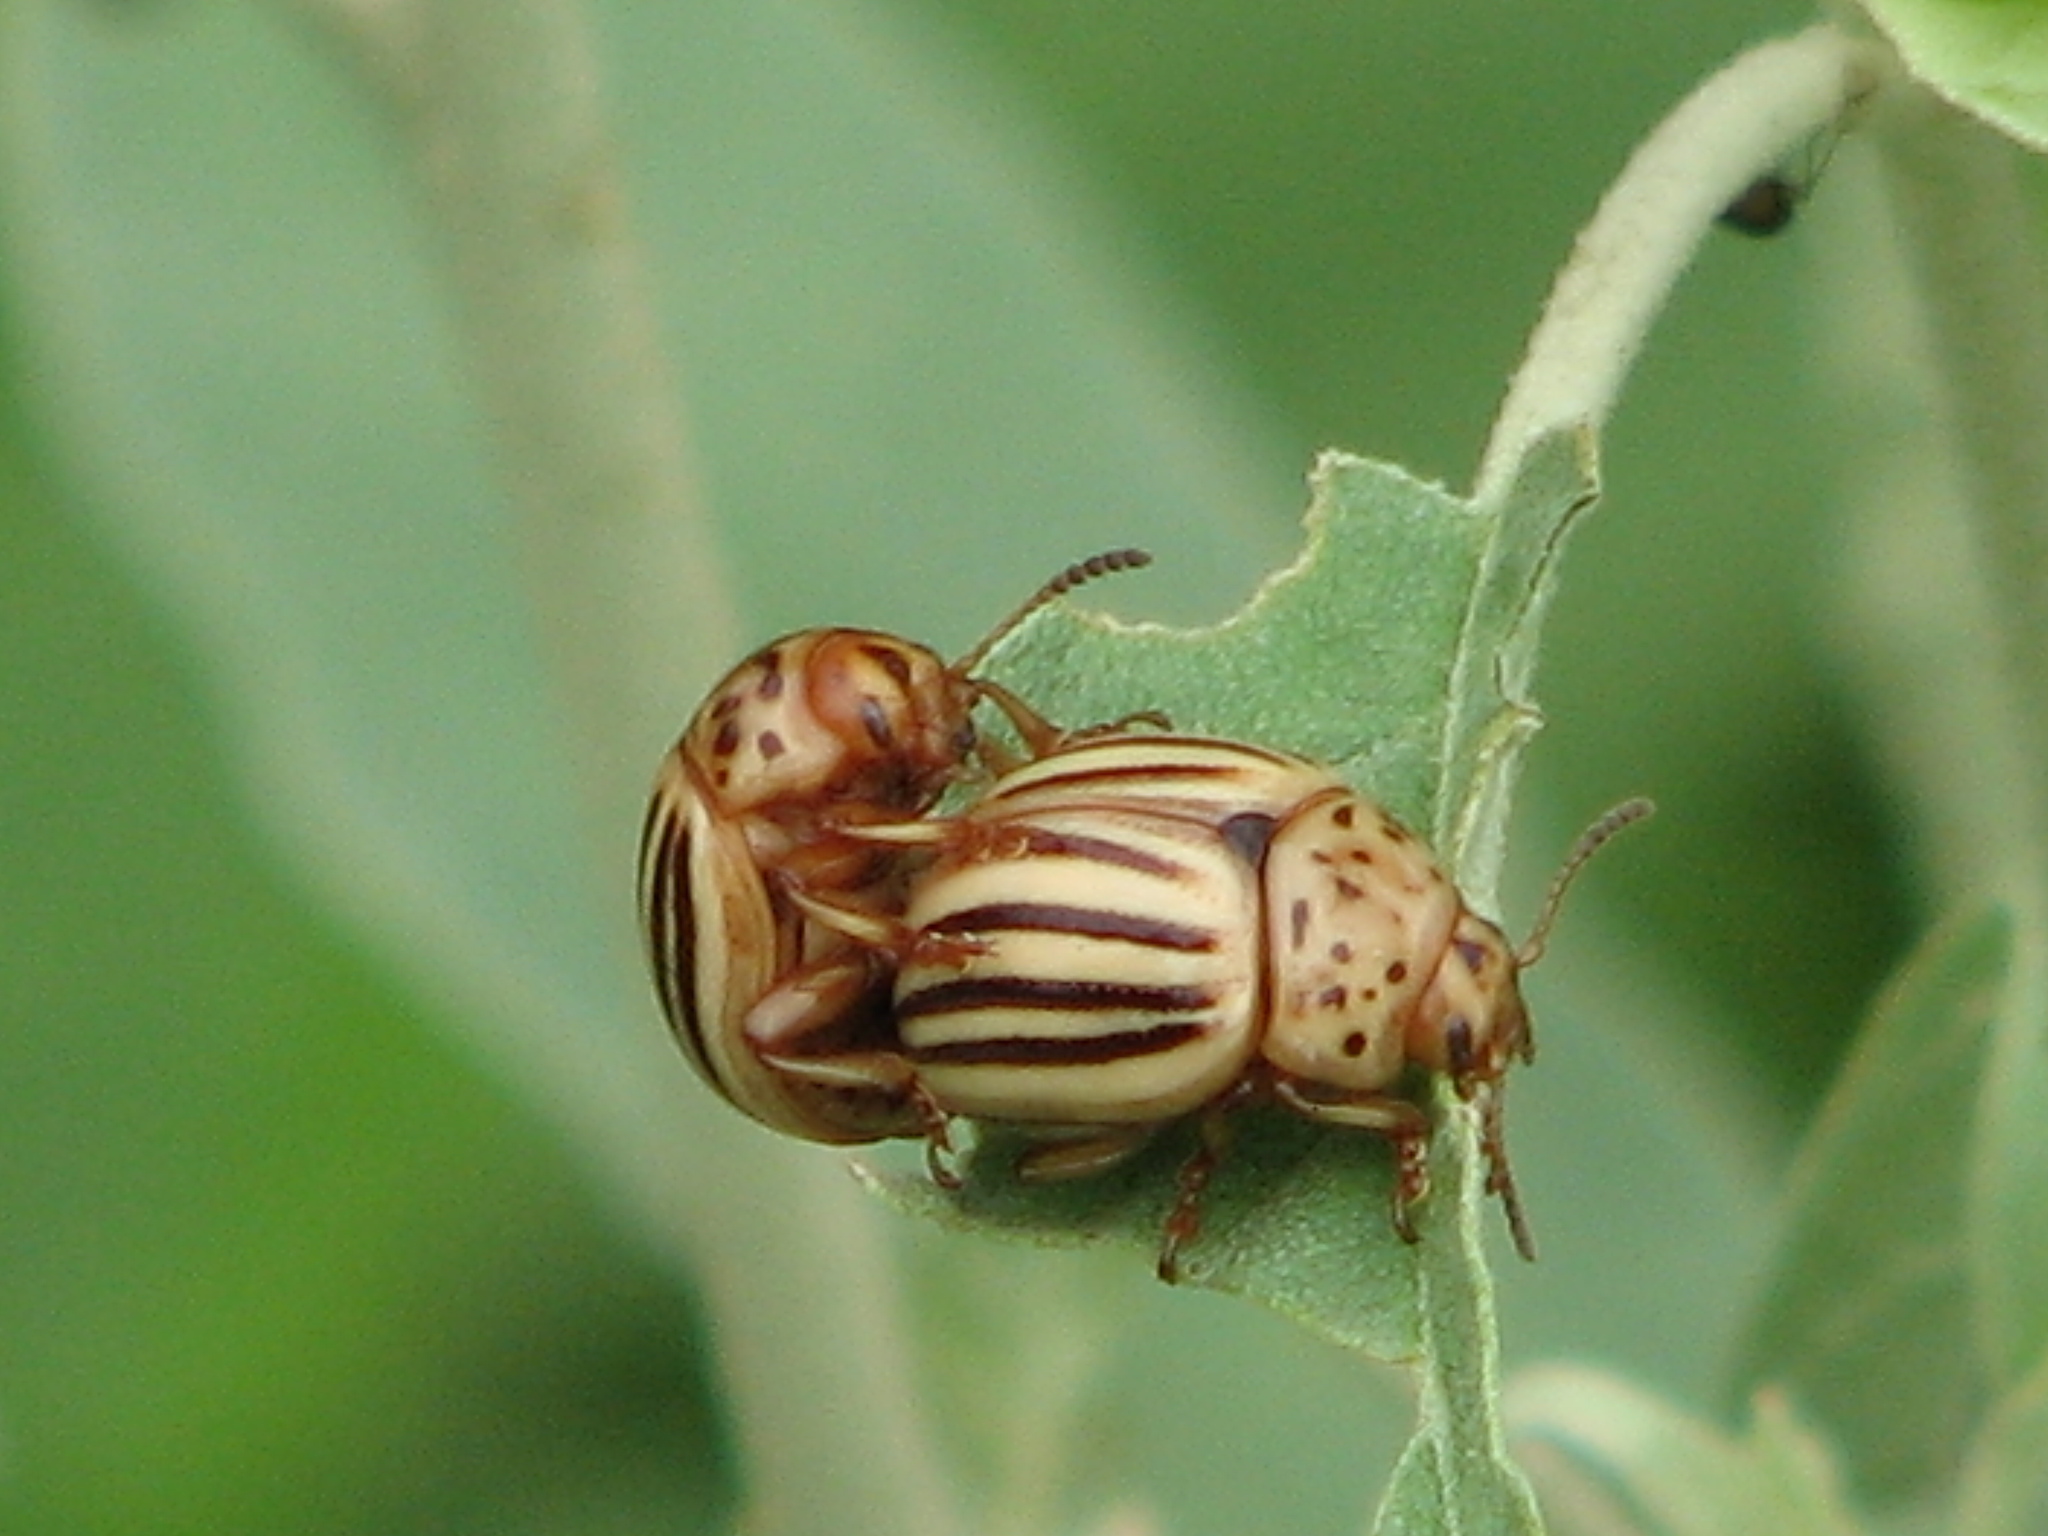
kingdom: Animalia
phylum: Arthropoda
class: Insecta
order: Coleoptera
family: Chrysomelidae
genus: Leptinotarsa
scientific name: Leptinotarsa texana
